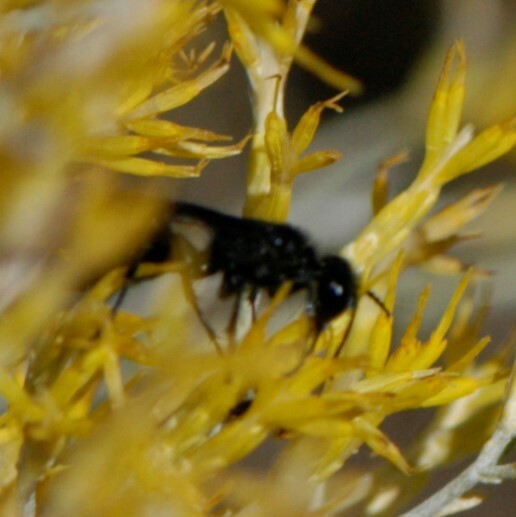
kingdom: Animalia
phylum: Arthropoda
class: Insecta
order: Hymenoptera
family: Sphecidae
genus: Podalonia
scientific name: Podalonia
